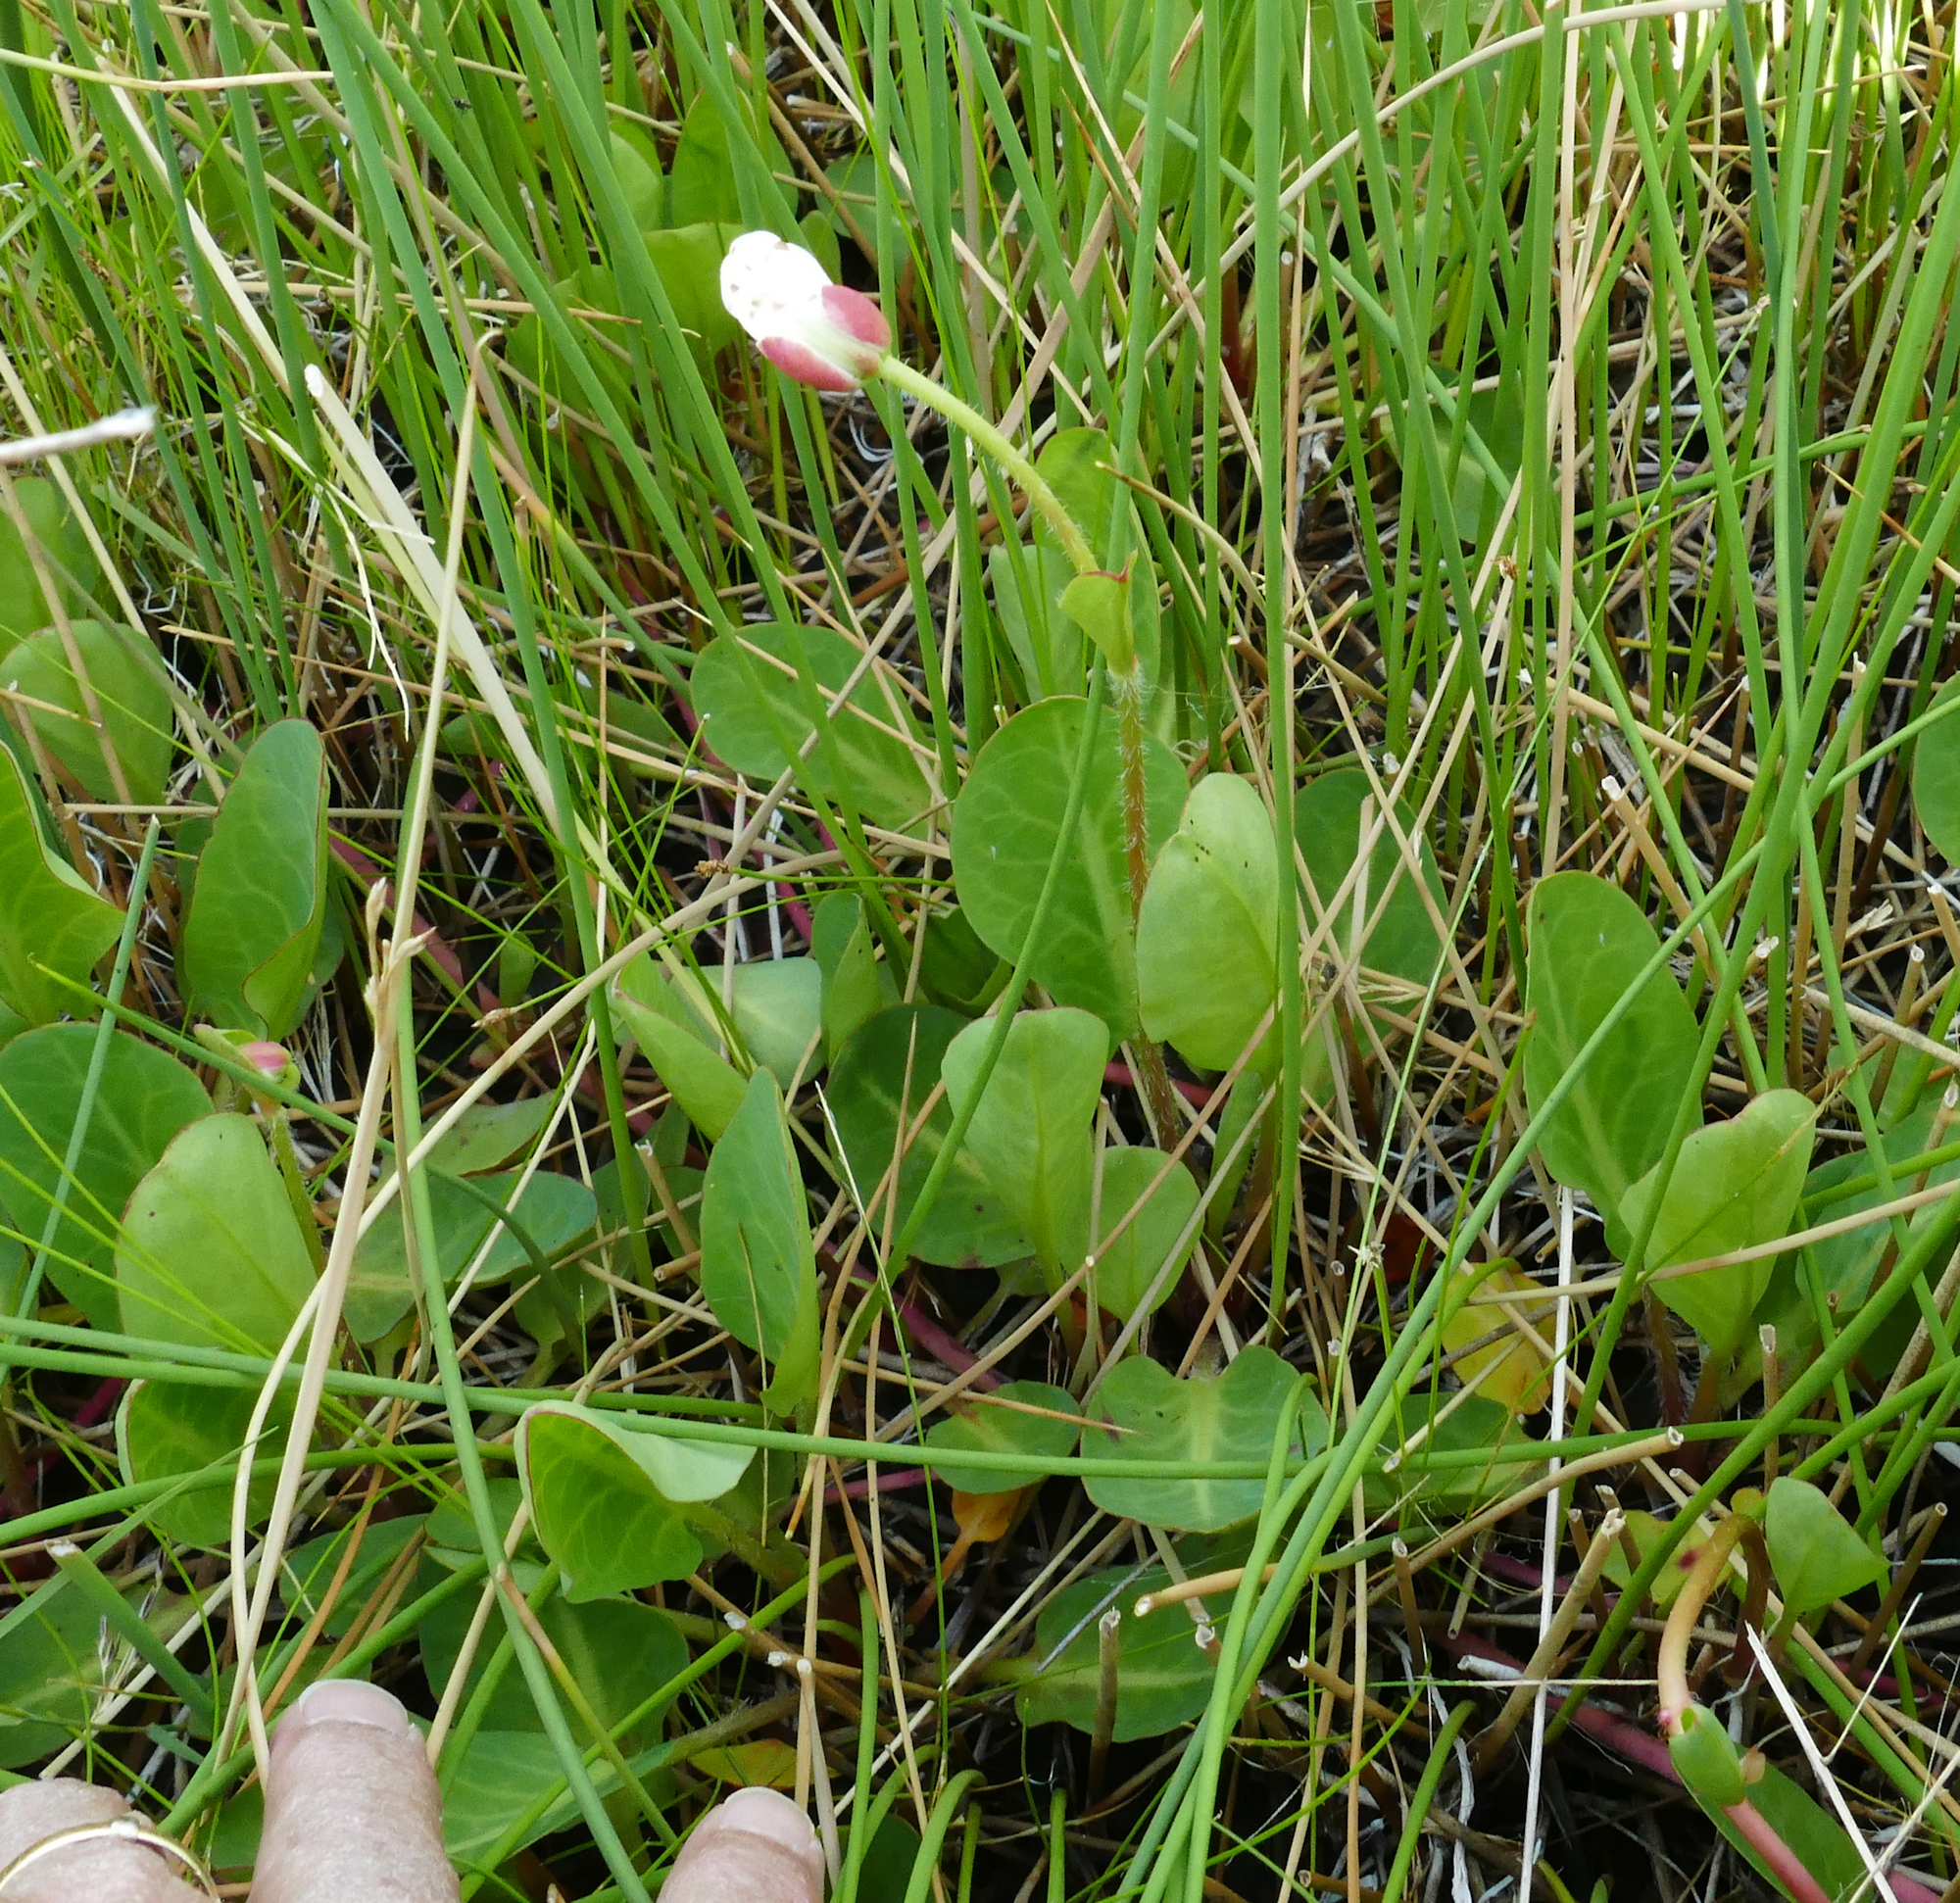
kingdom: Plantae
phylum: Tracheophyta
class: Magnoliopsida
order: Piperales
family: Saururaceae
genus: Anemopsis
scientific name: Anemopsis californica
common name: Apache-beads
